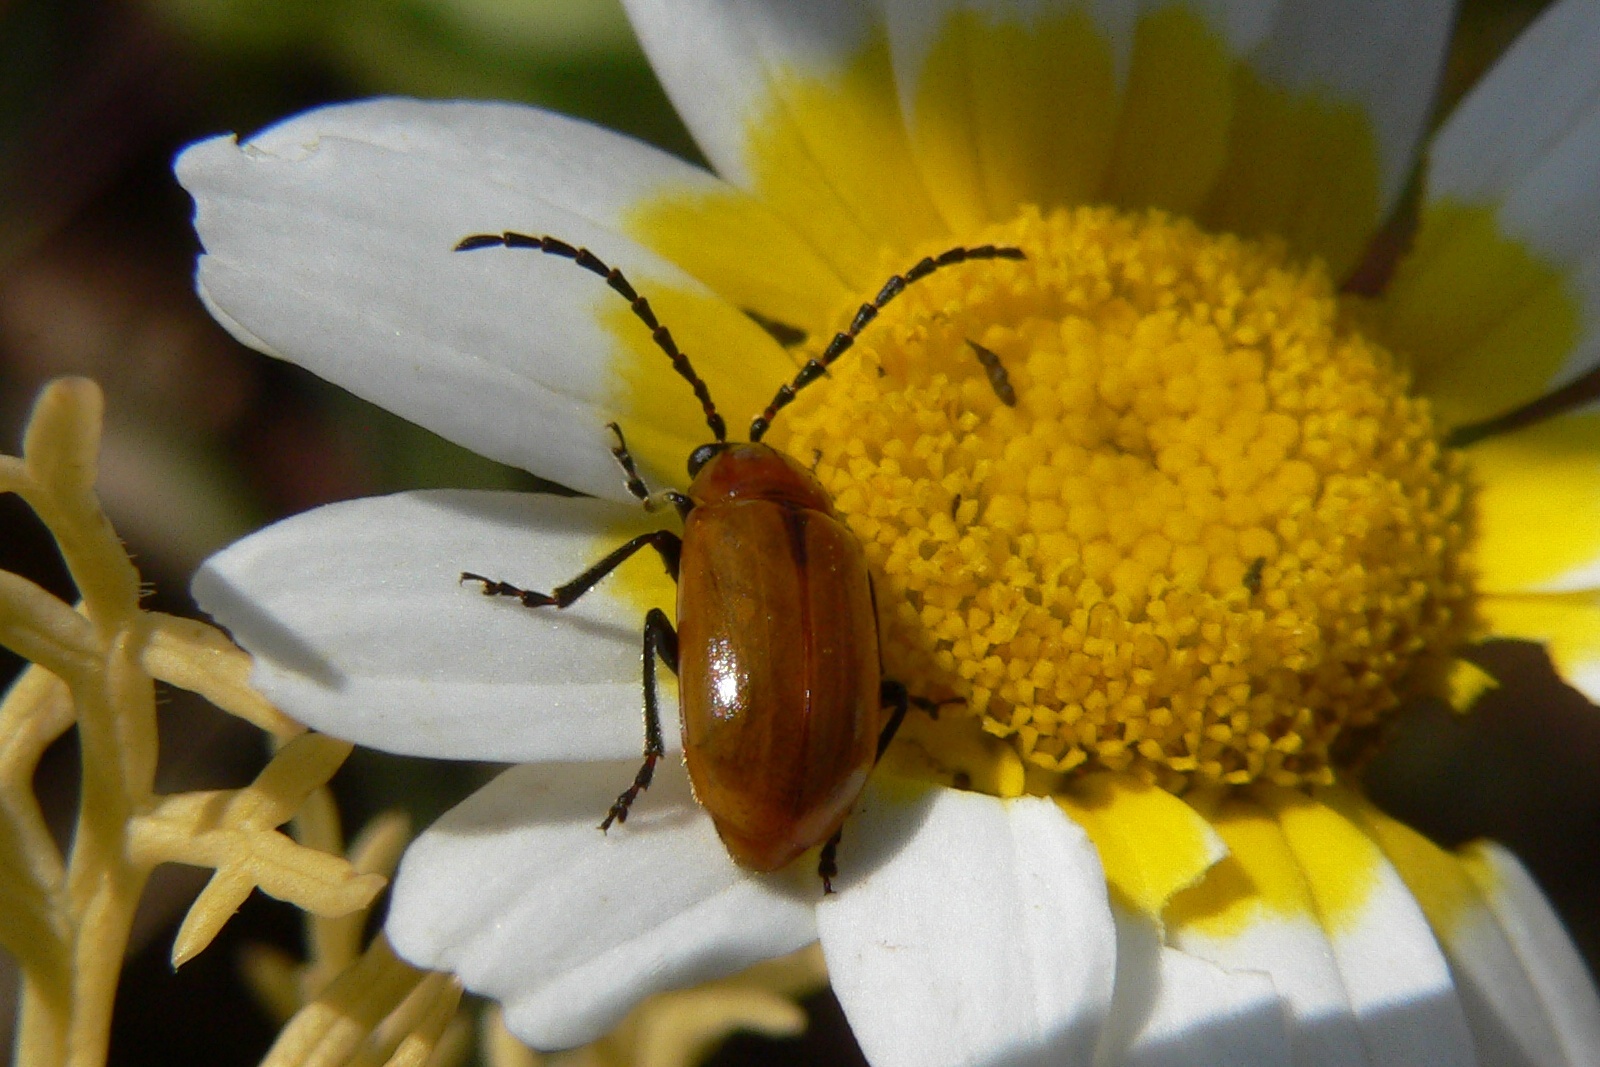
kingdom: Animalia
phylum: Arthropoda
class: Insecta
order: Coleoptera
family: Chrysomelidae
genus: Exosoma
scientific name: Exosoma lusitanicum
